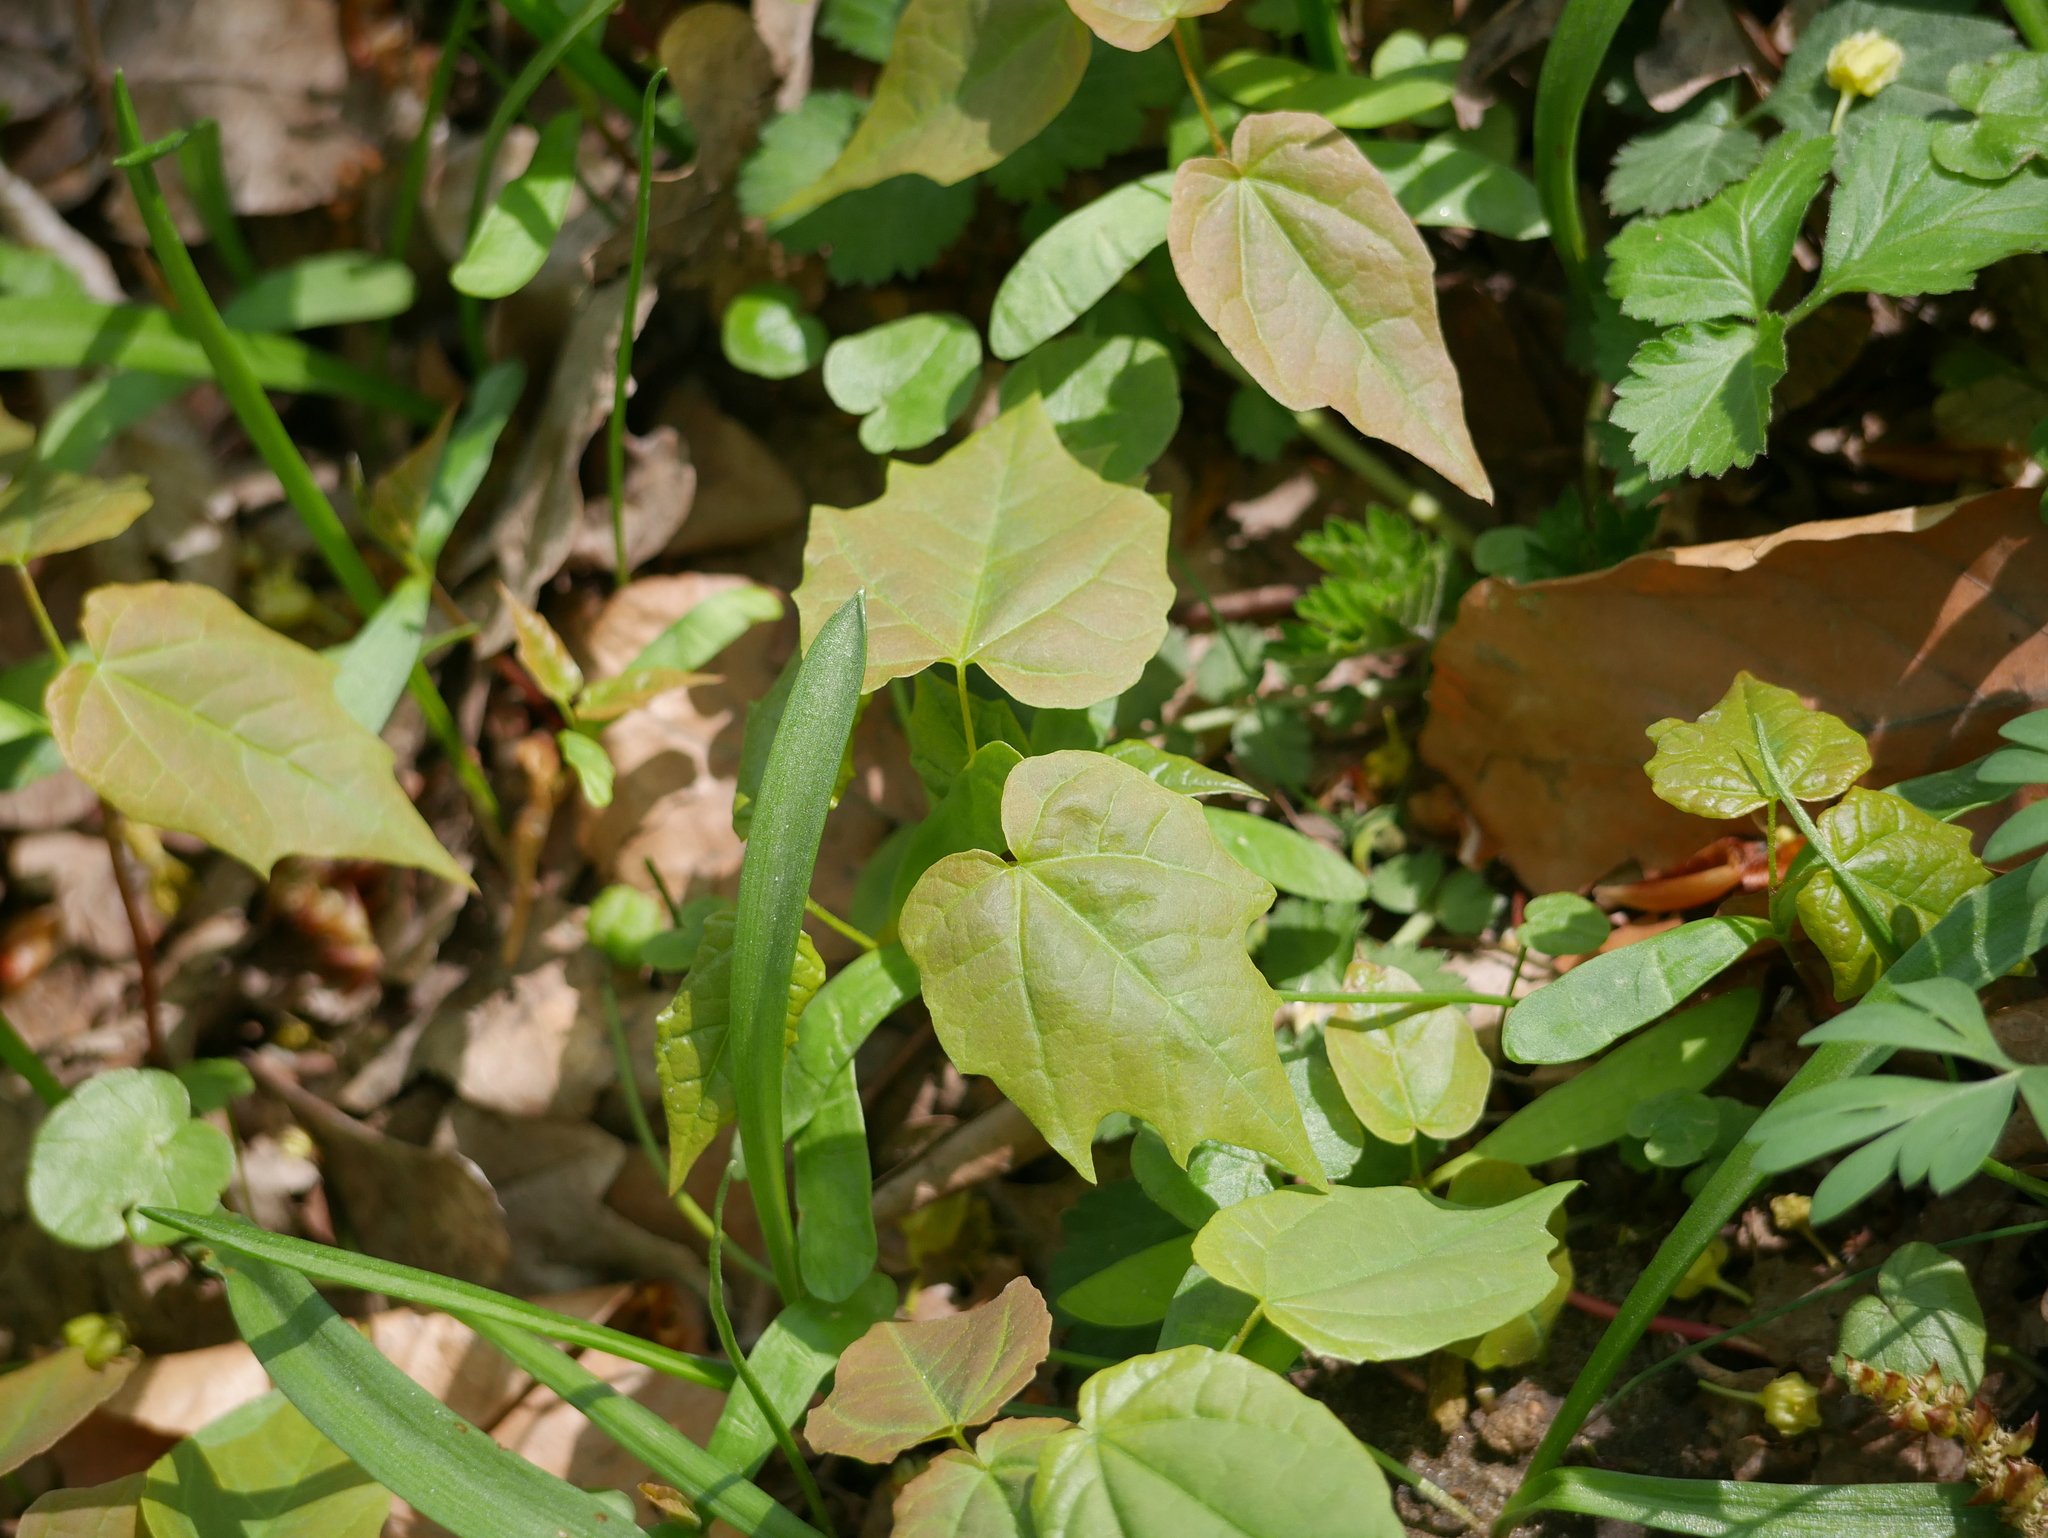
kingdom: Plantae
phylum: Tracheophyta
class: Magnoliopsida
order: Sapindales
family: Sapindaceae
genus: Acer
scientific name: Acer platanoides
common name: Norway maple
